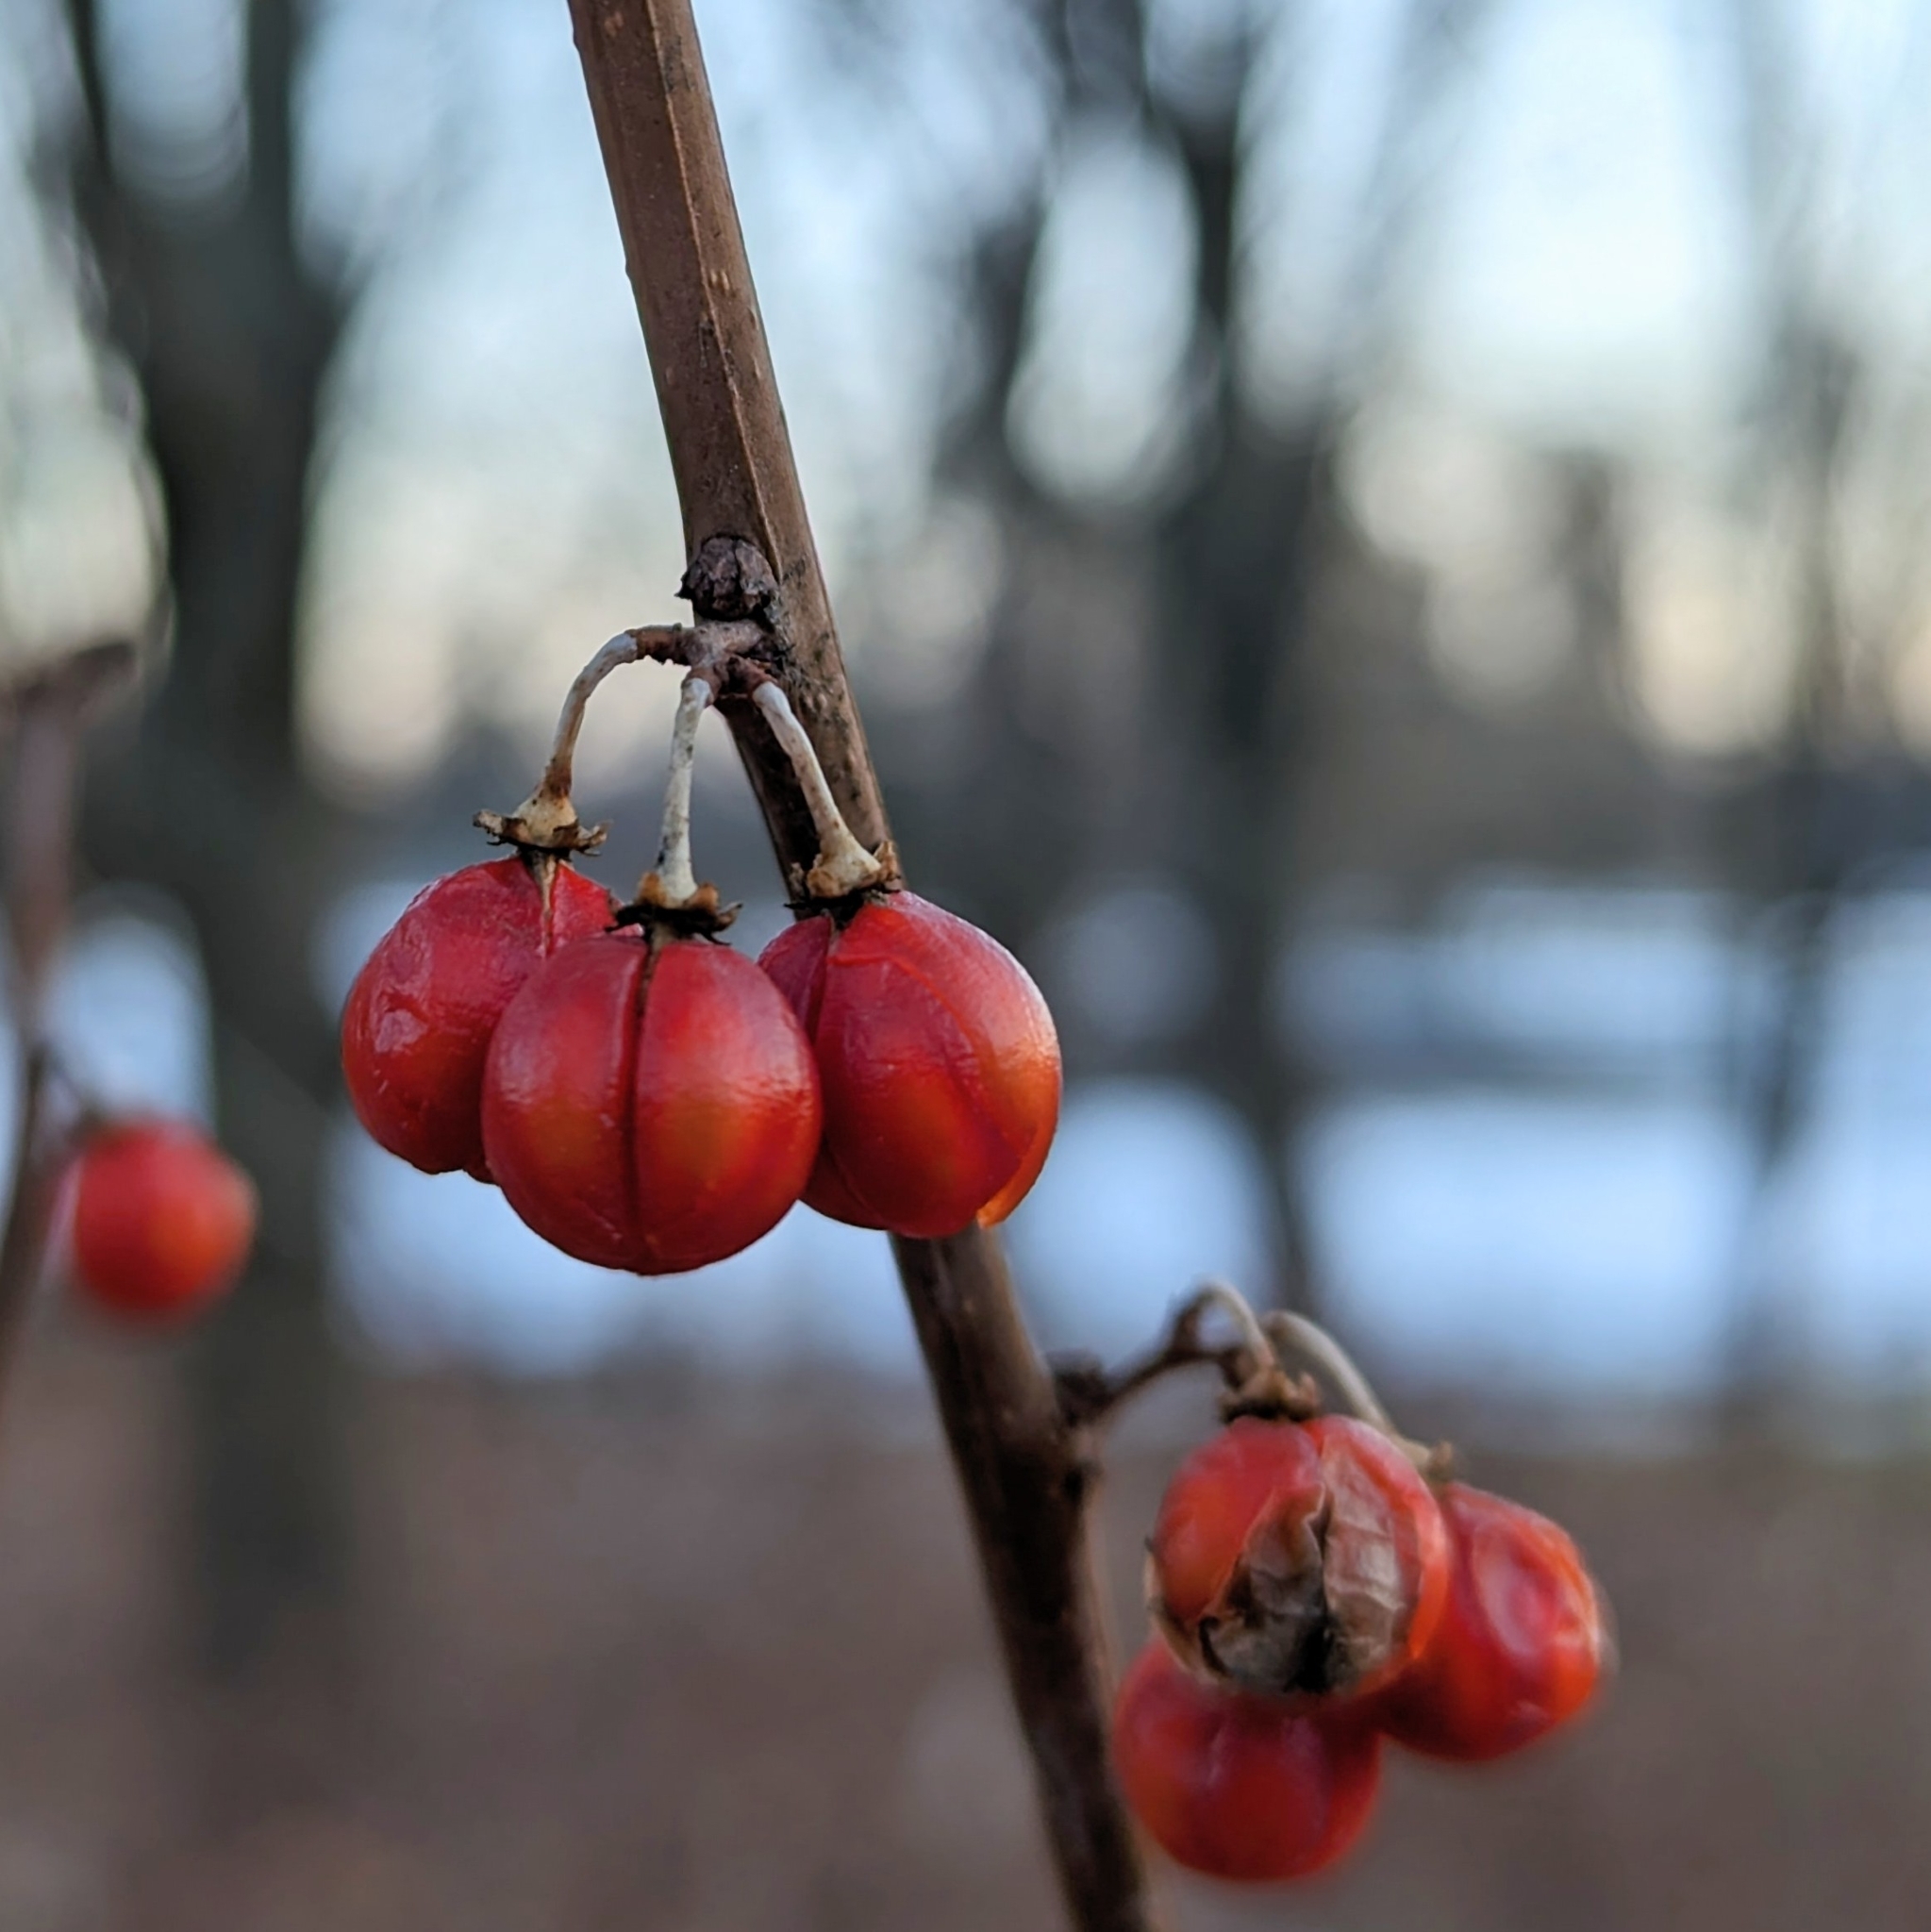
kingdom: Plantae
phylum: Tracheophyta
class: Magnoliopsida
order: Celastrales
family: Celastraceae
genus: Celastrus
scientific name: Celastrus orbiculatus
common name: Oriental bittersweet
